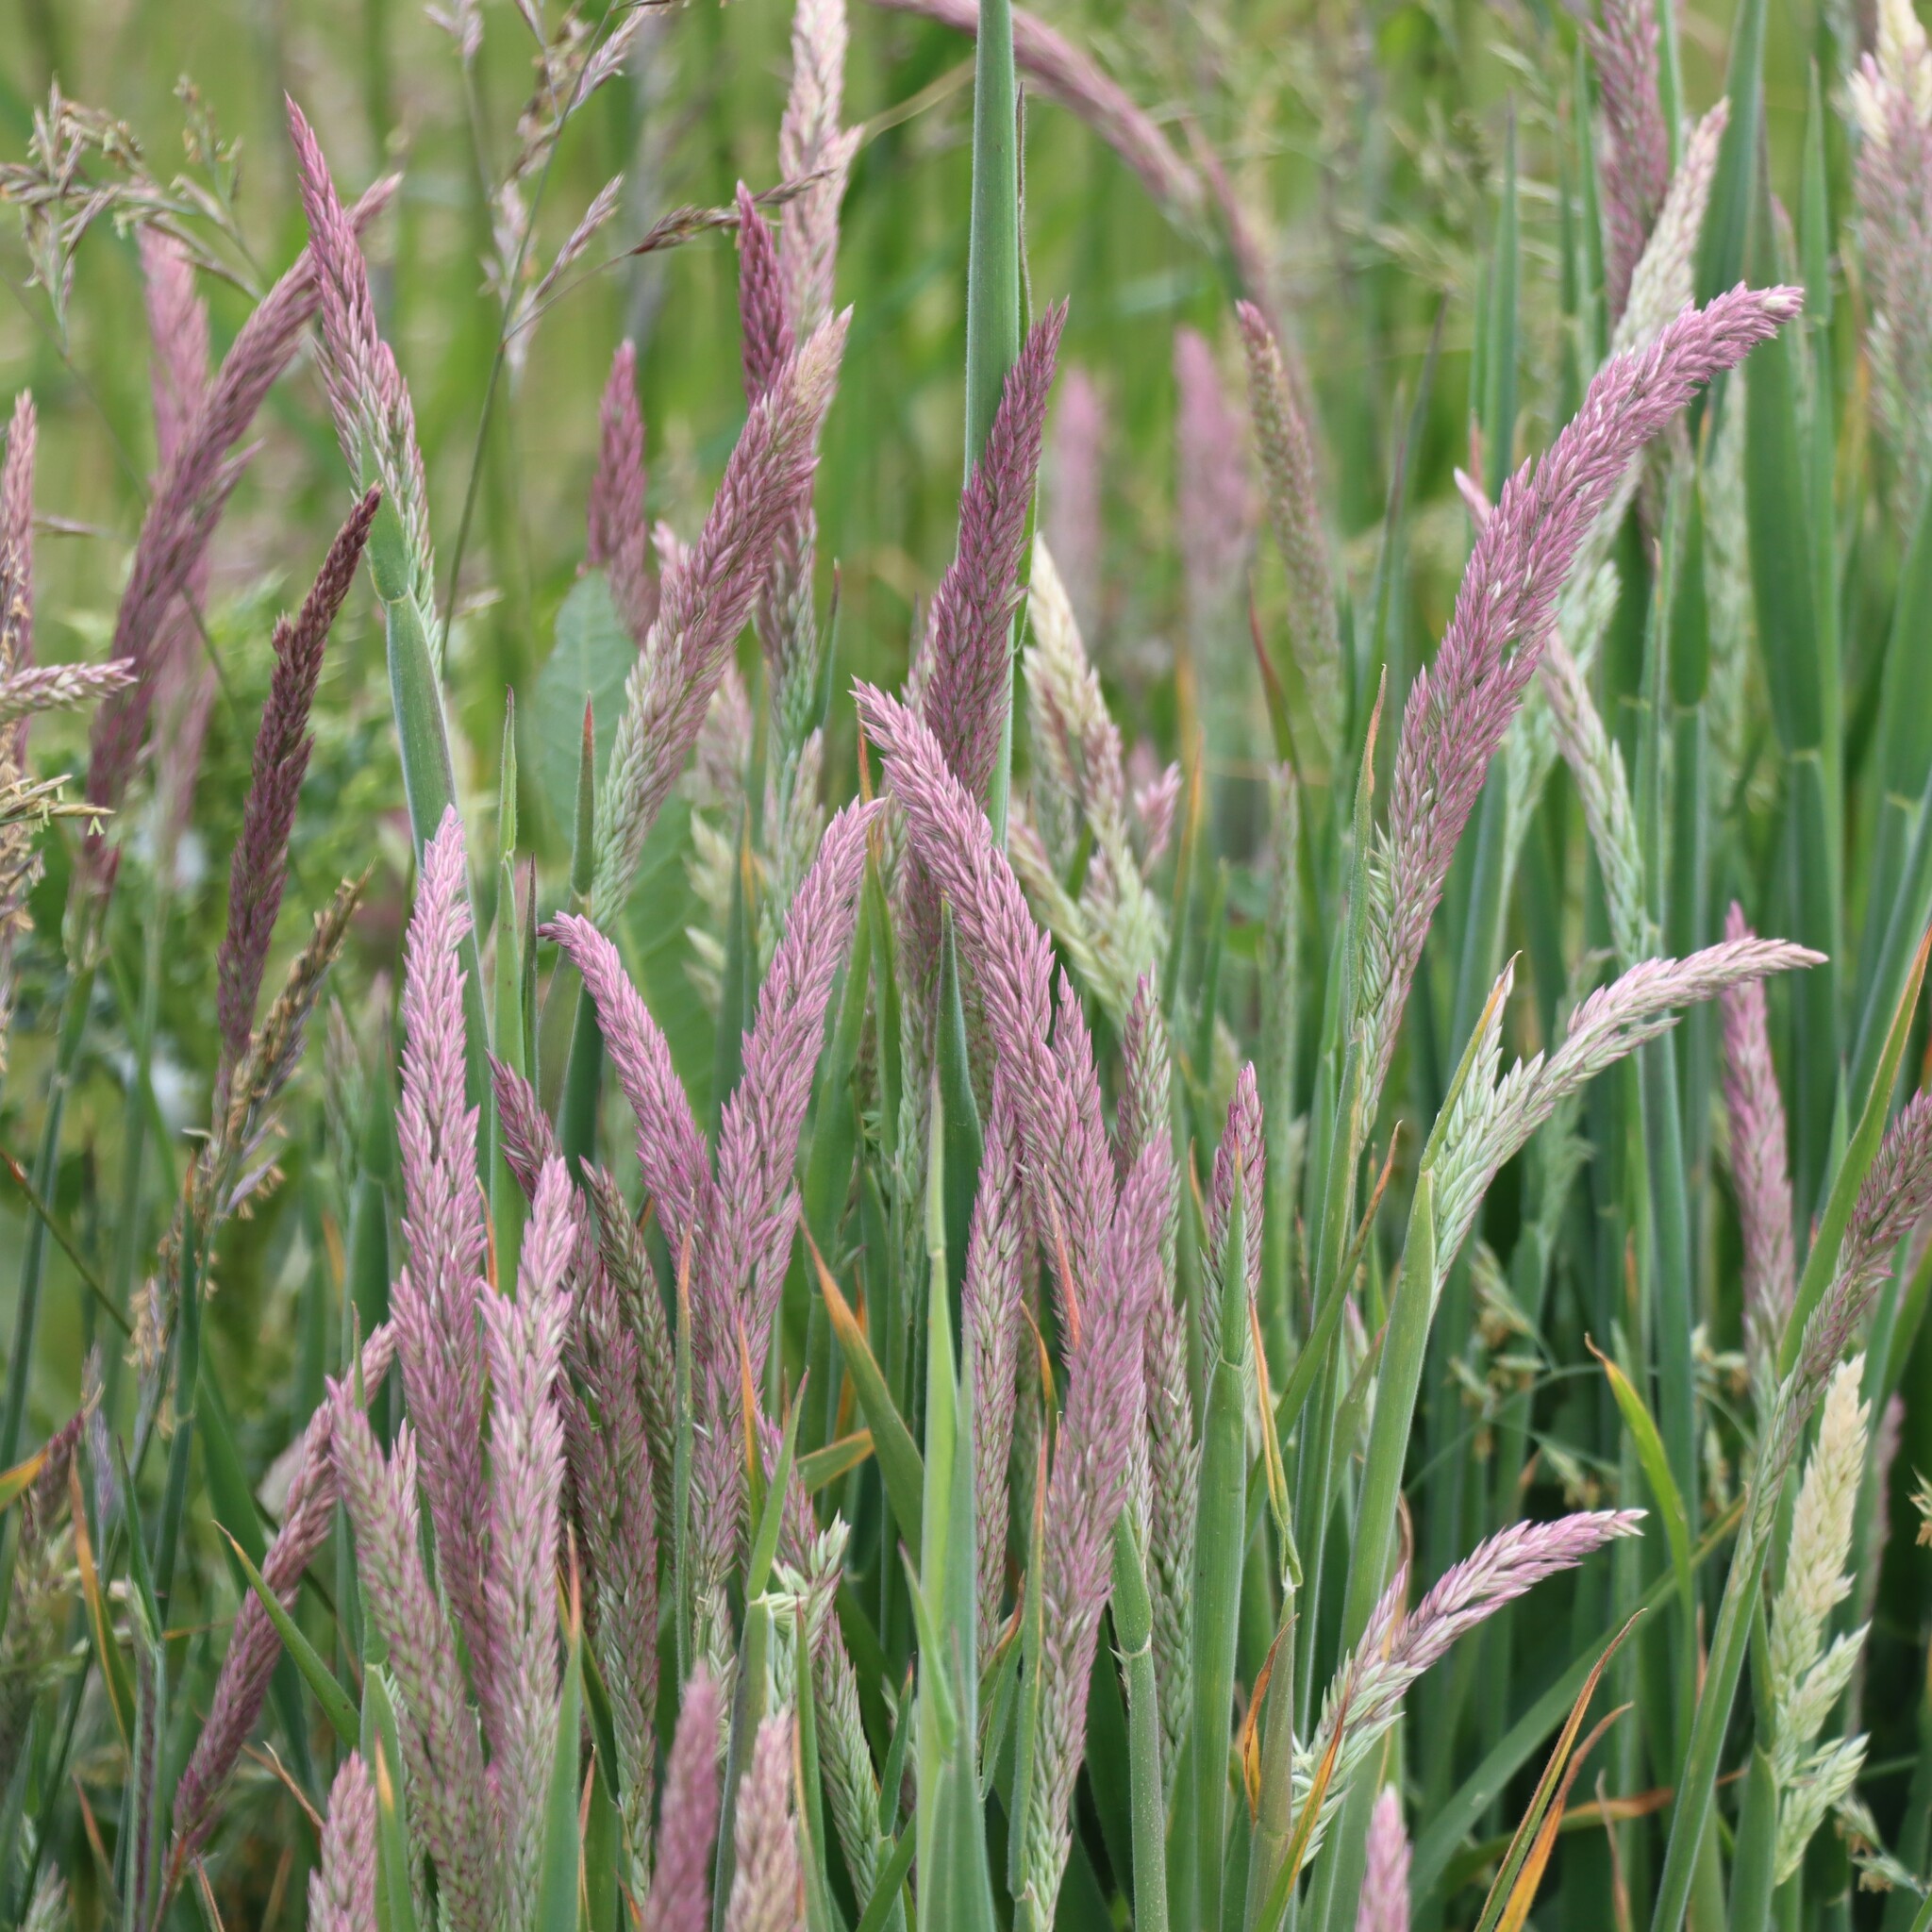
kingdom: Plantae
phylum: Tracheophyta
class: Liliopsida
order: Poales
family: Poaceae
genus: Holcus
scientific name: Holcus lanatus
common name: Yorkshire-fog
